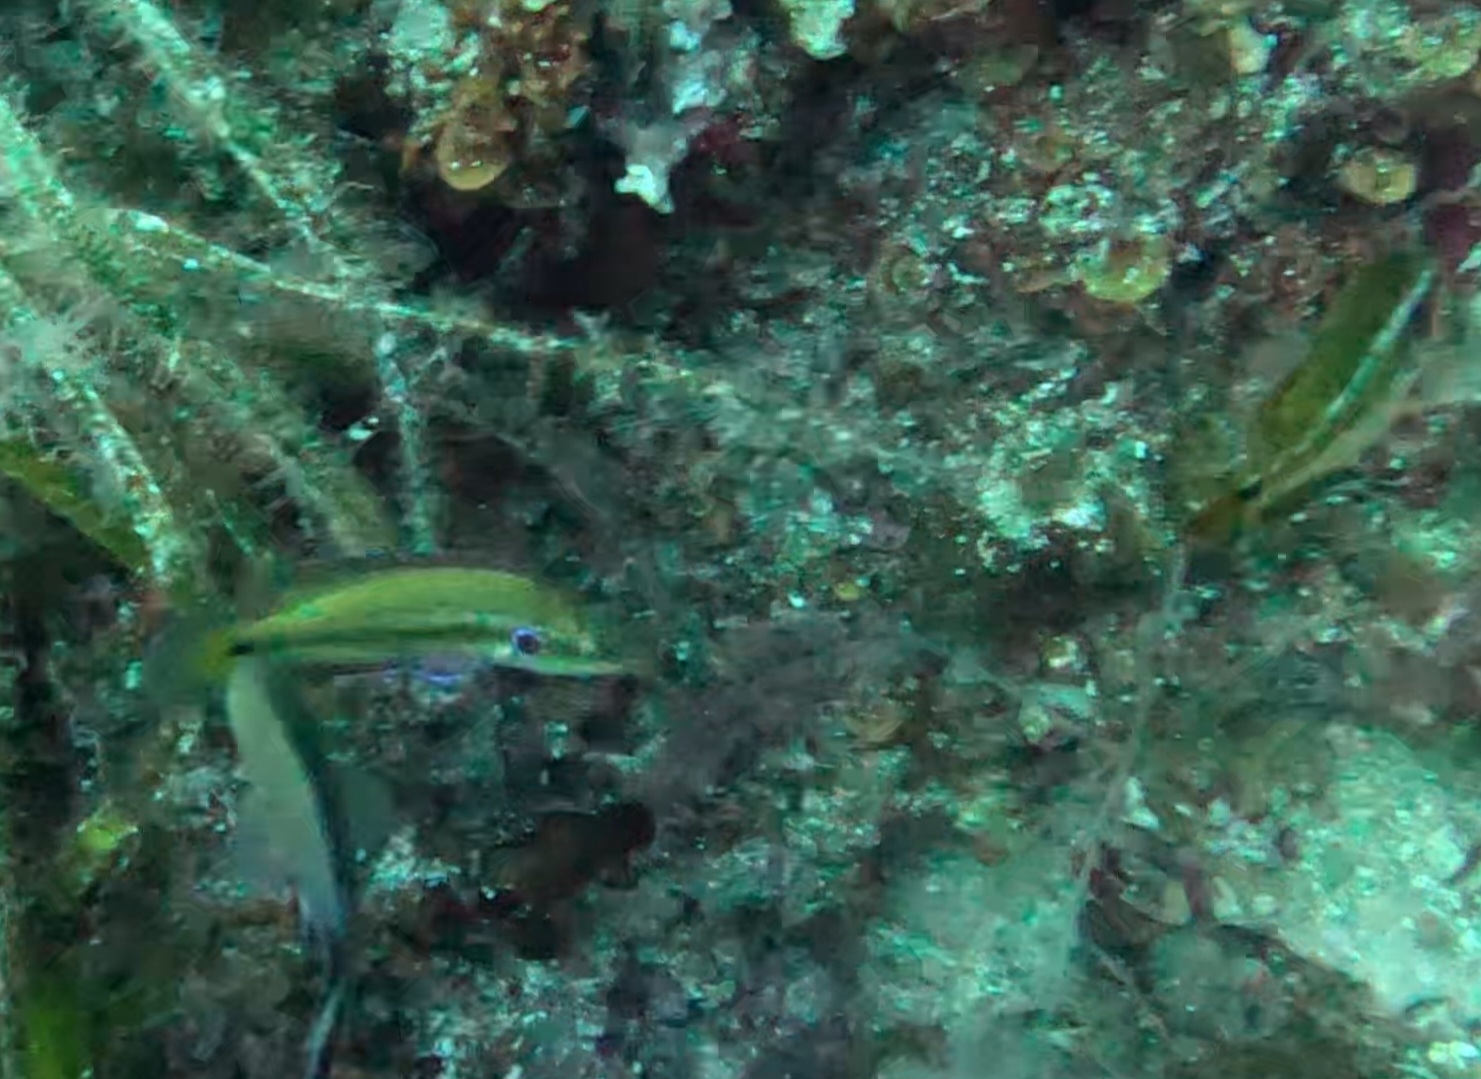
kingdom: Animalia
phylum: Chordata
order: Perciformes
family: Labridae
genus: Symphodus
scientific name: Symphodus ocellatus
